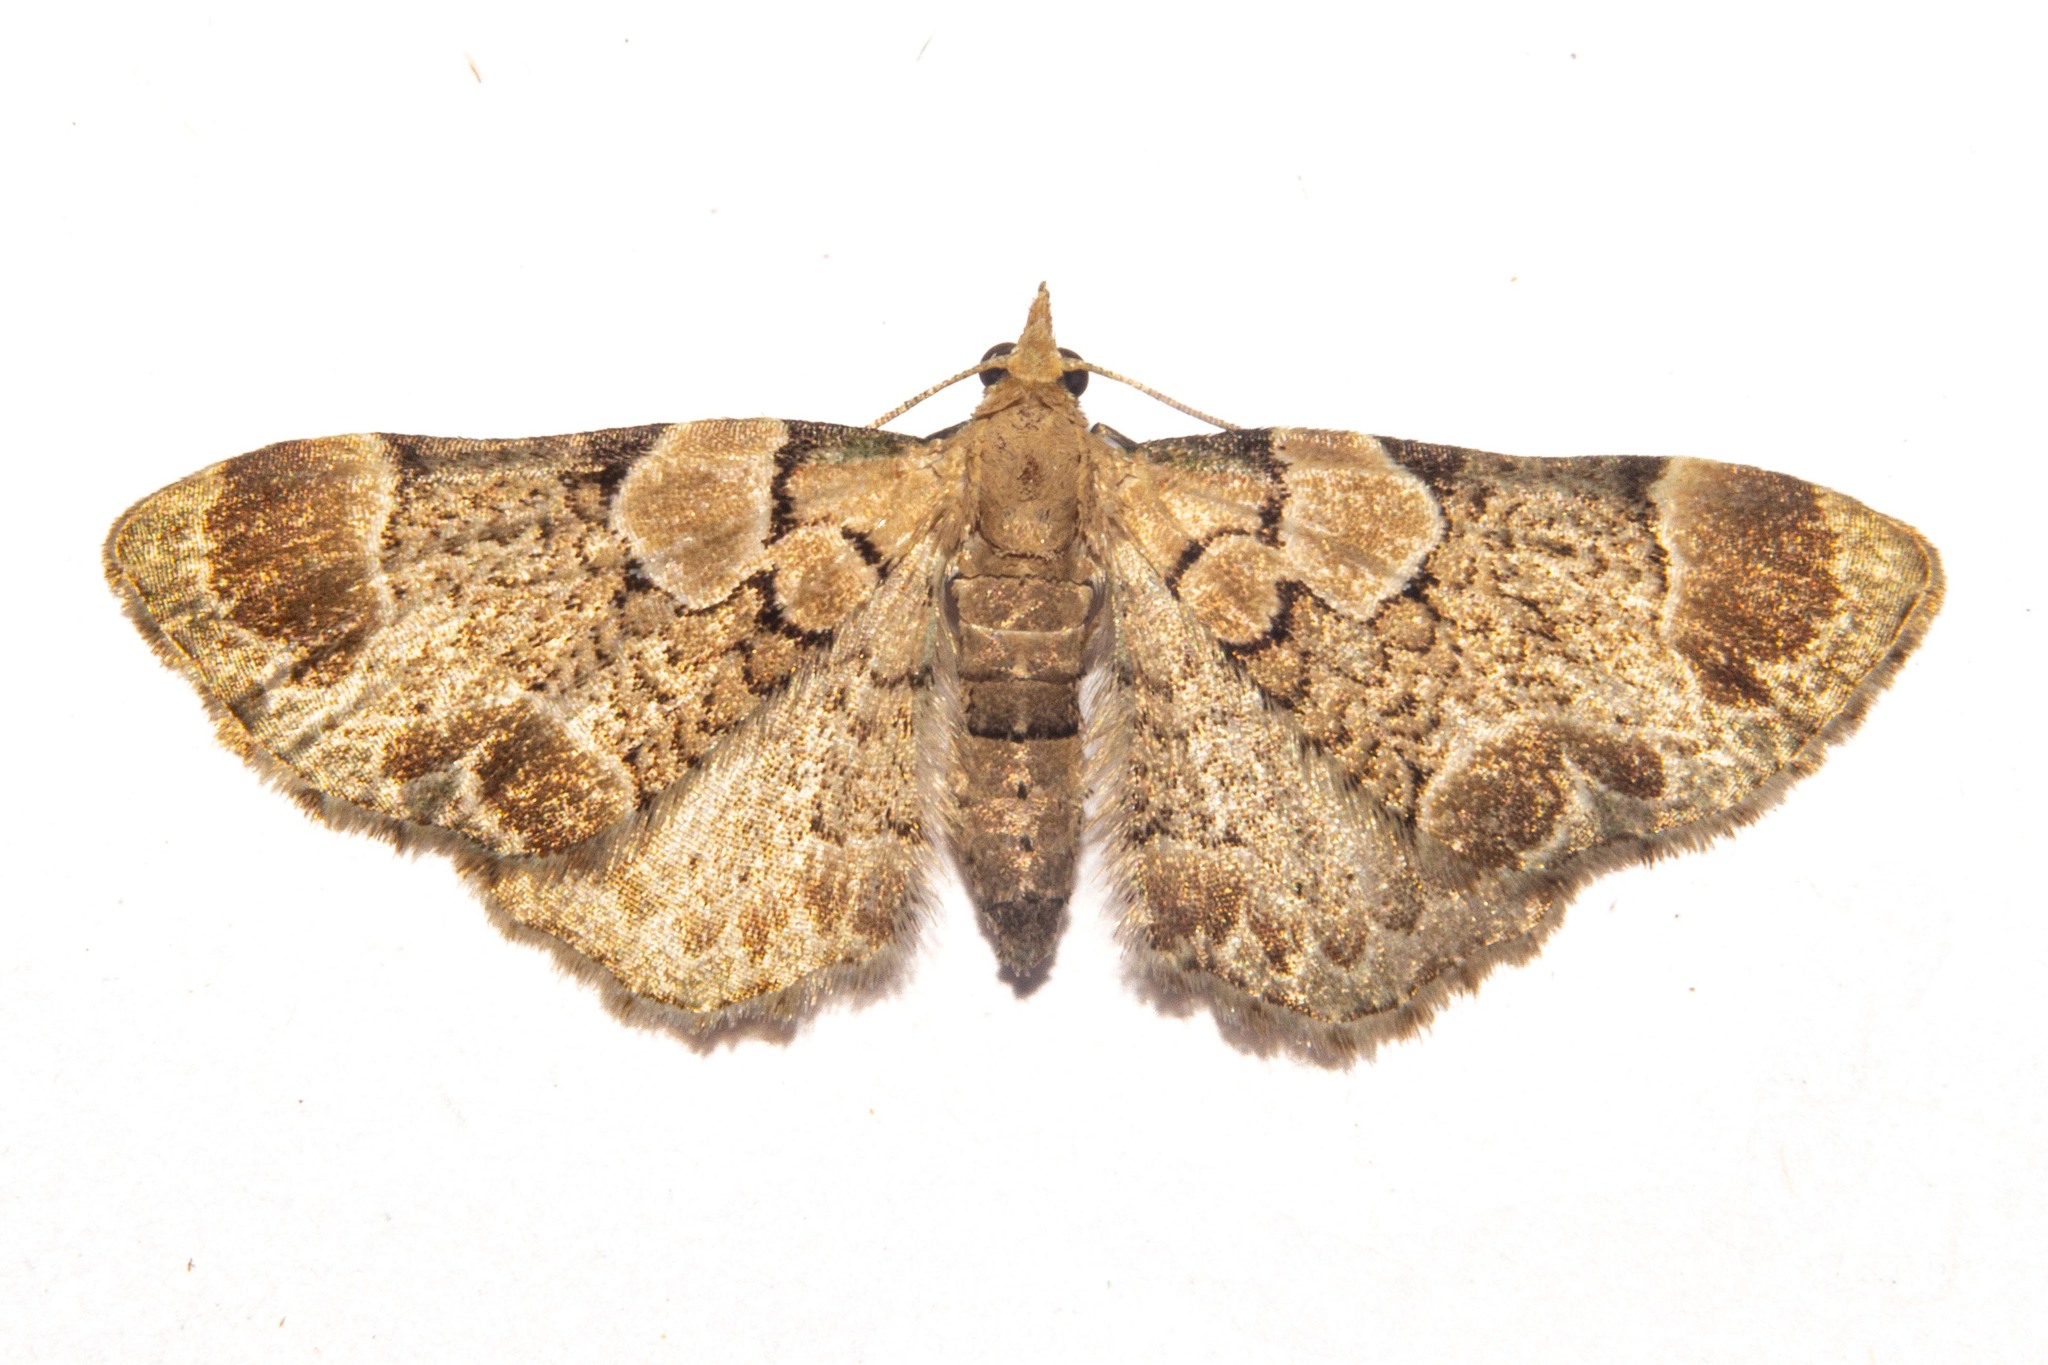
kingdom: Animalia
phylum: Arthropoda
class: Insecta
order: Lepidoptera
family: Geometridae
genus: Chloroclystis
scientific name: Chloroclystis
